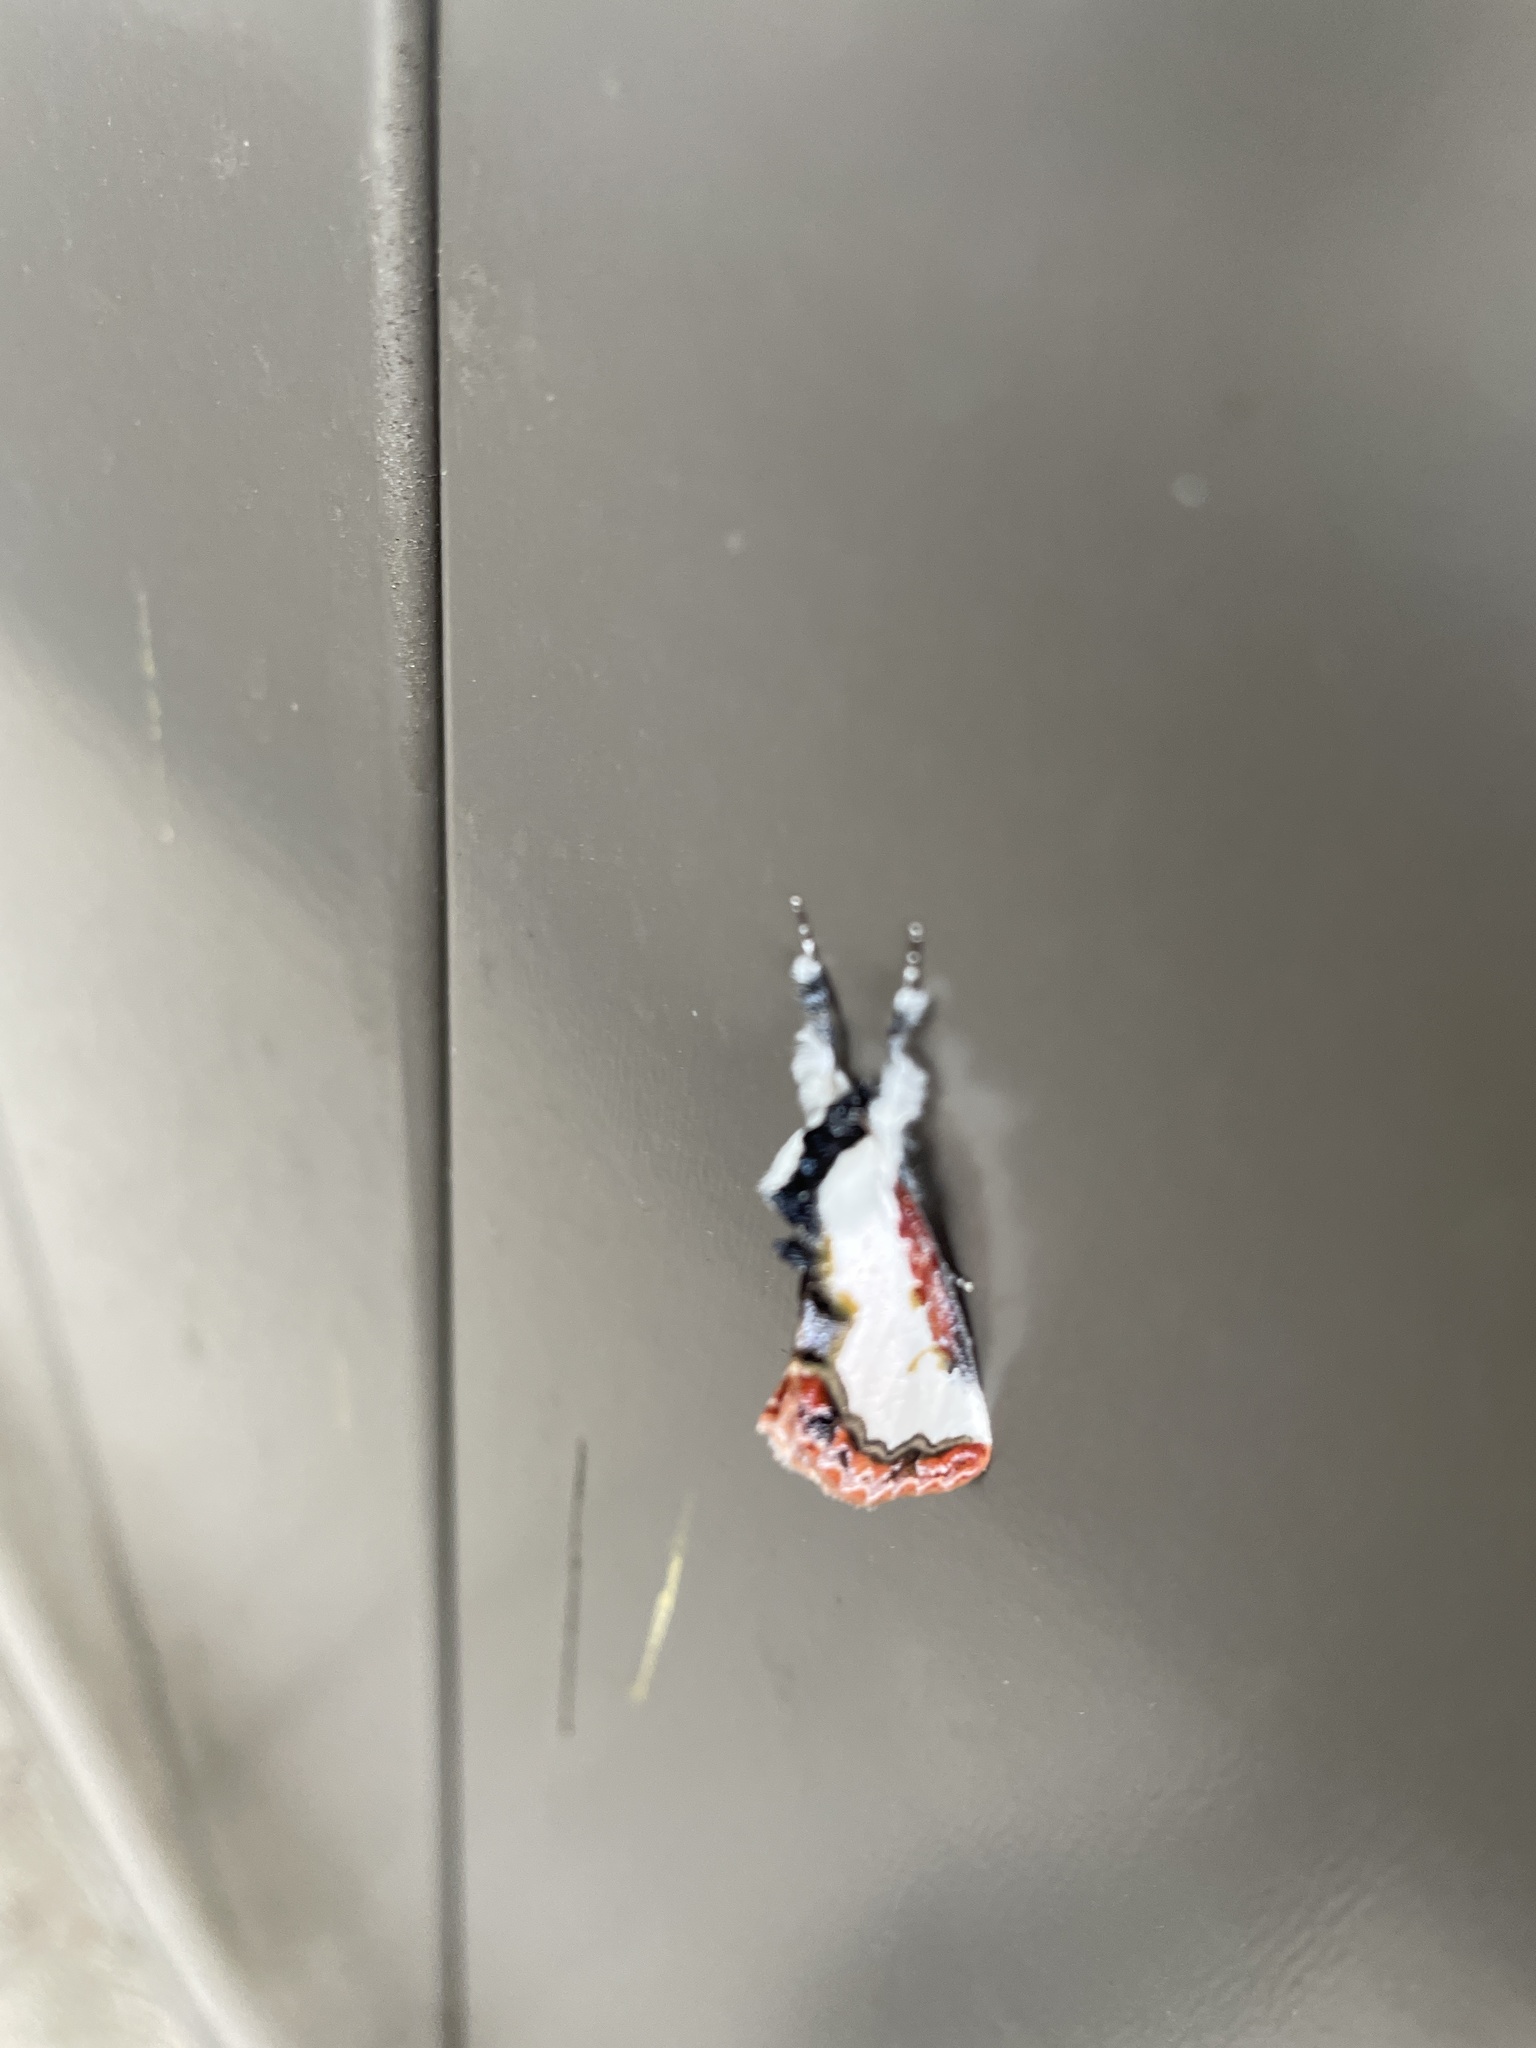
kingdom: Animalia
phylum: Arthropoda
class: Insecta
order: Lepidoptera
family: Noctuidae
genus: Eudryas
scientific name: Eudryas unio
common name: Pearly wood-nymph
